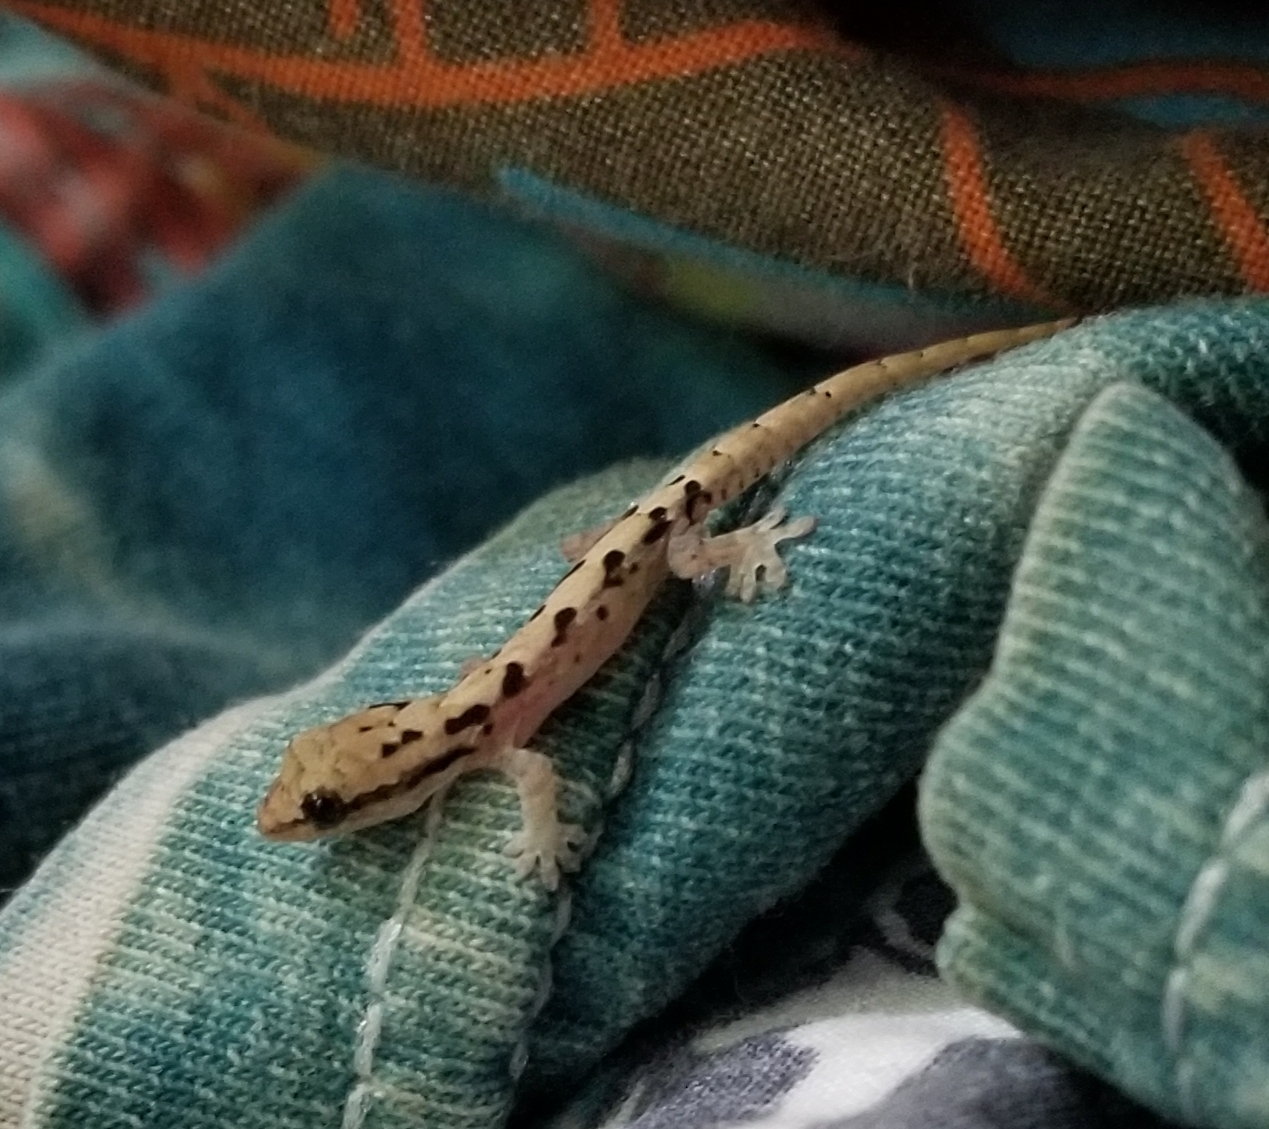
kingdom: Animalia
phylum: Chordata
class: Squamata
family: Gekkonidae
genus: Lepidodactylus
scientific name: Lepidodactylus lugubris
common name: Mourning gecko
